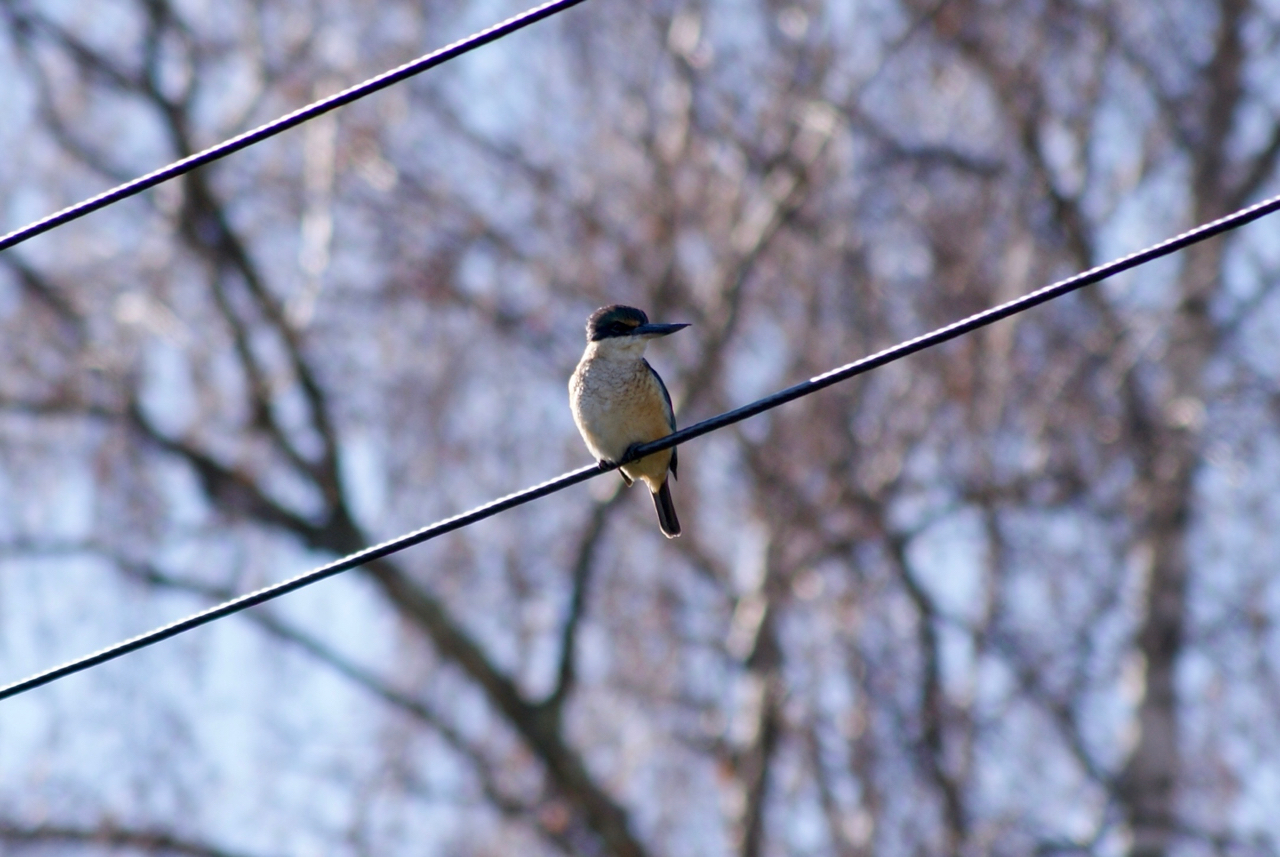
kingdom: Animalia
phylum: Chordata
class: Aves
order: Coraciiformes
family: Alcedinidae
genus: Todiramphus
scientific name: Todiramphus sanctus
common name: Sacred kingfisher
